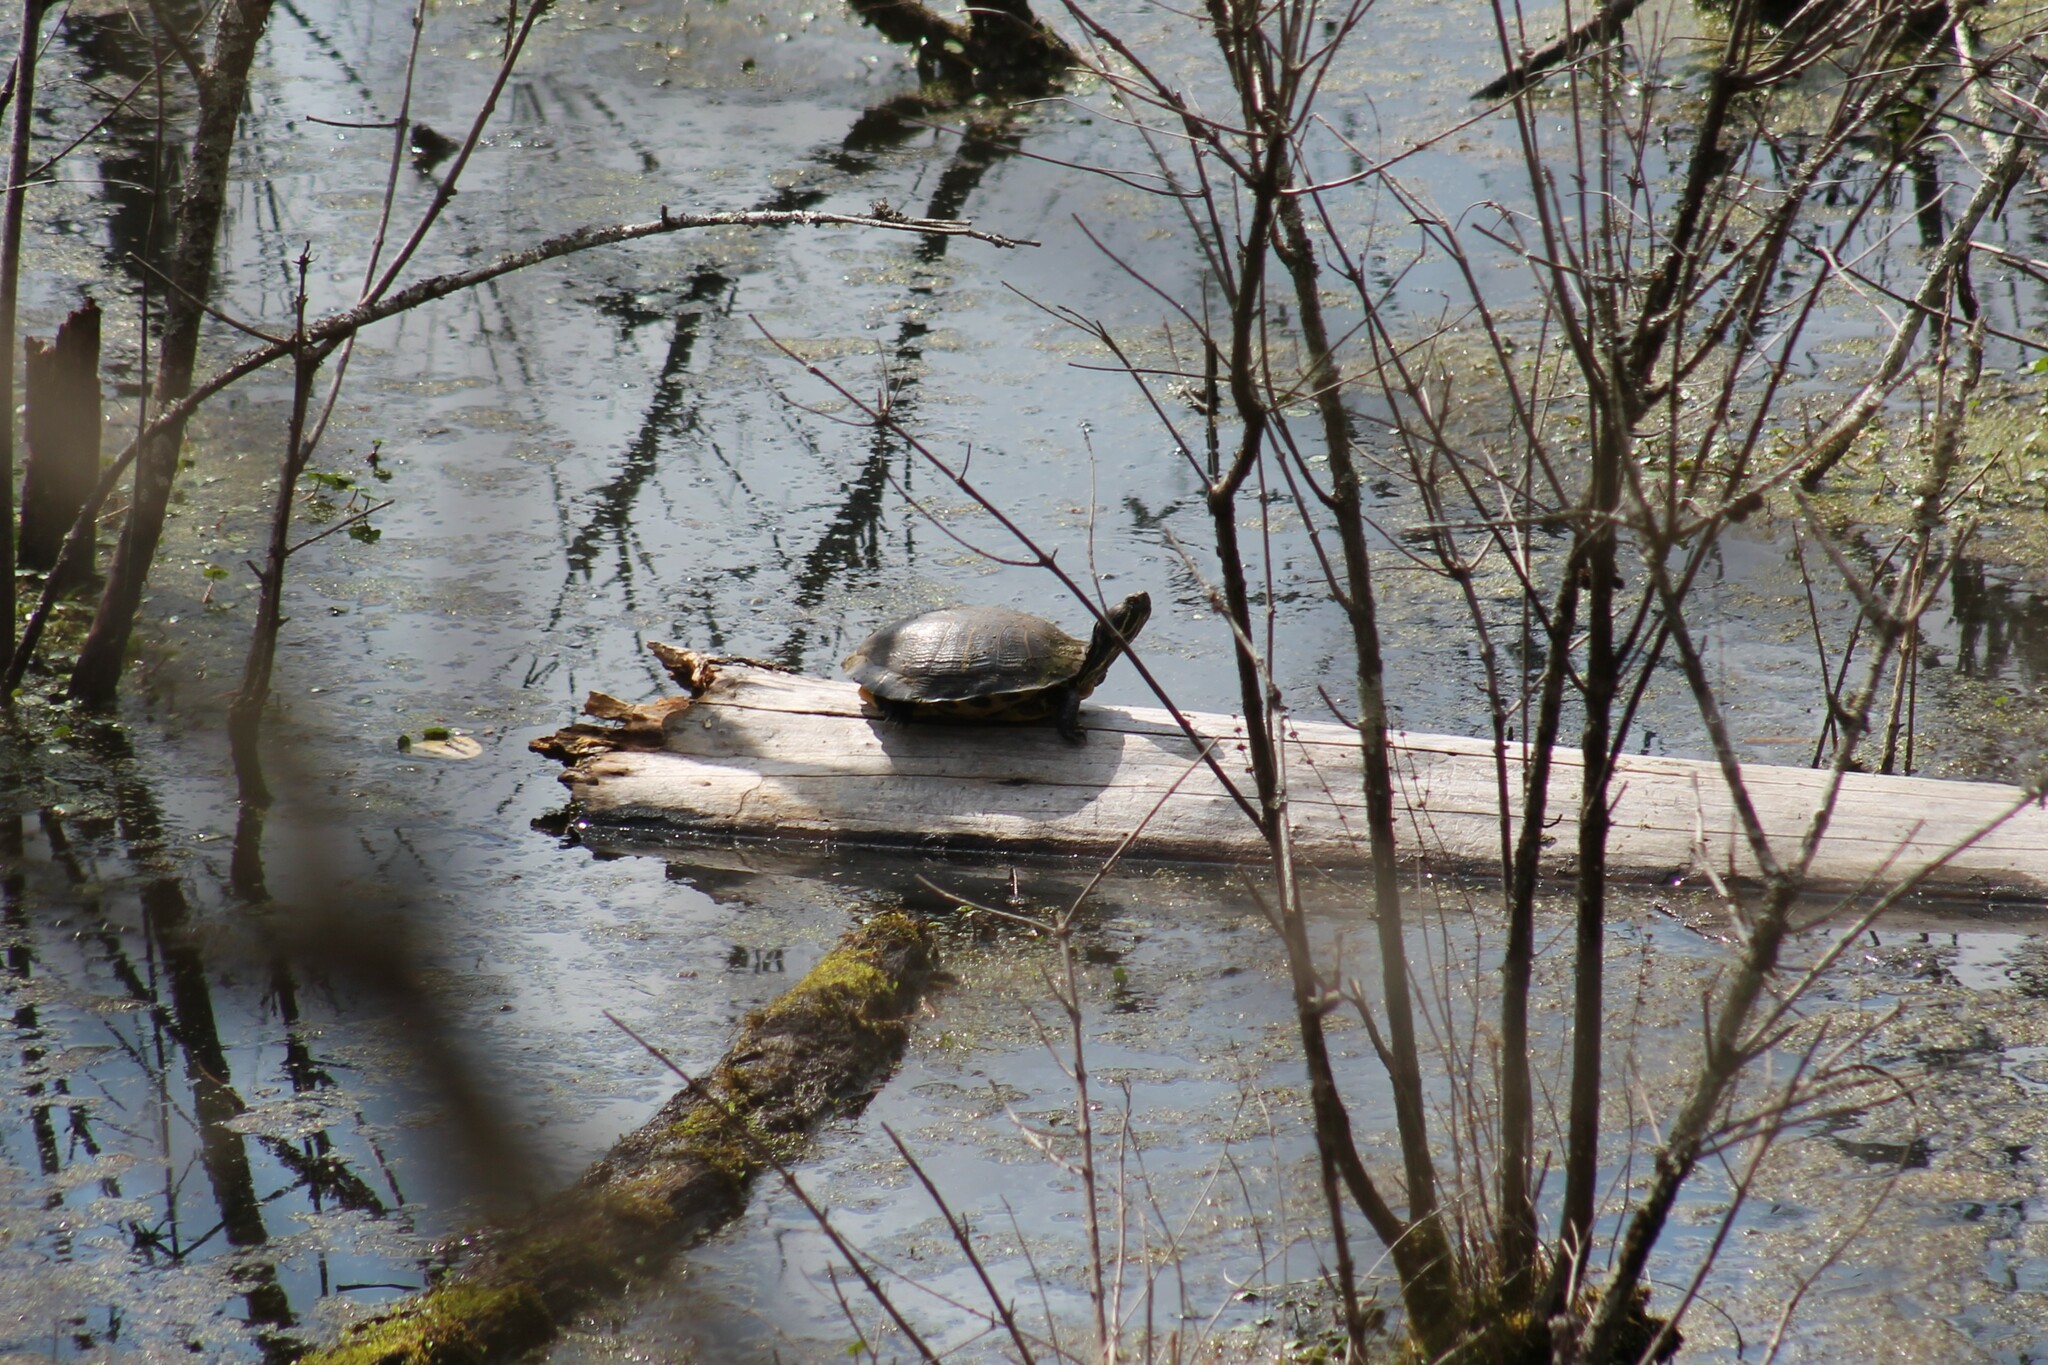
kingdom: Animalia
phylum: Chordata
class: Testudines
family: Emydidae
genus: Trachemys
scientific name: Trachemys scripta
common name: Slider
